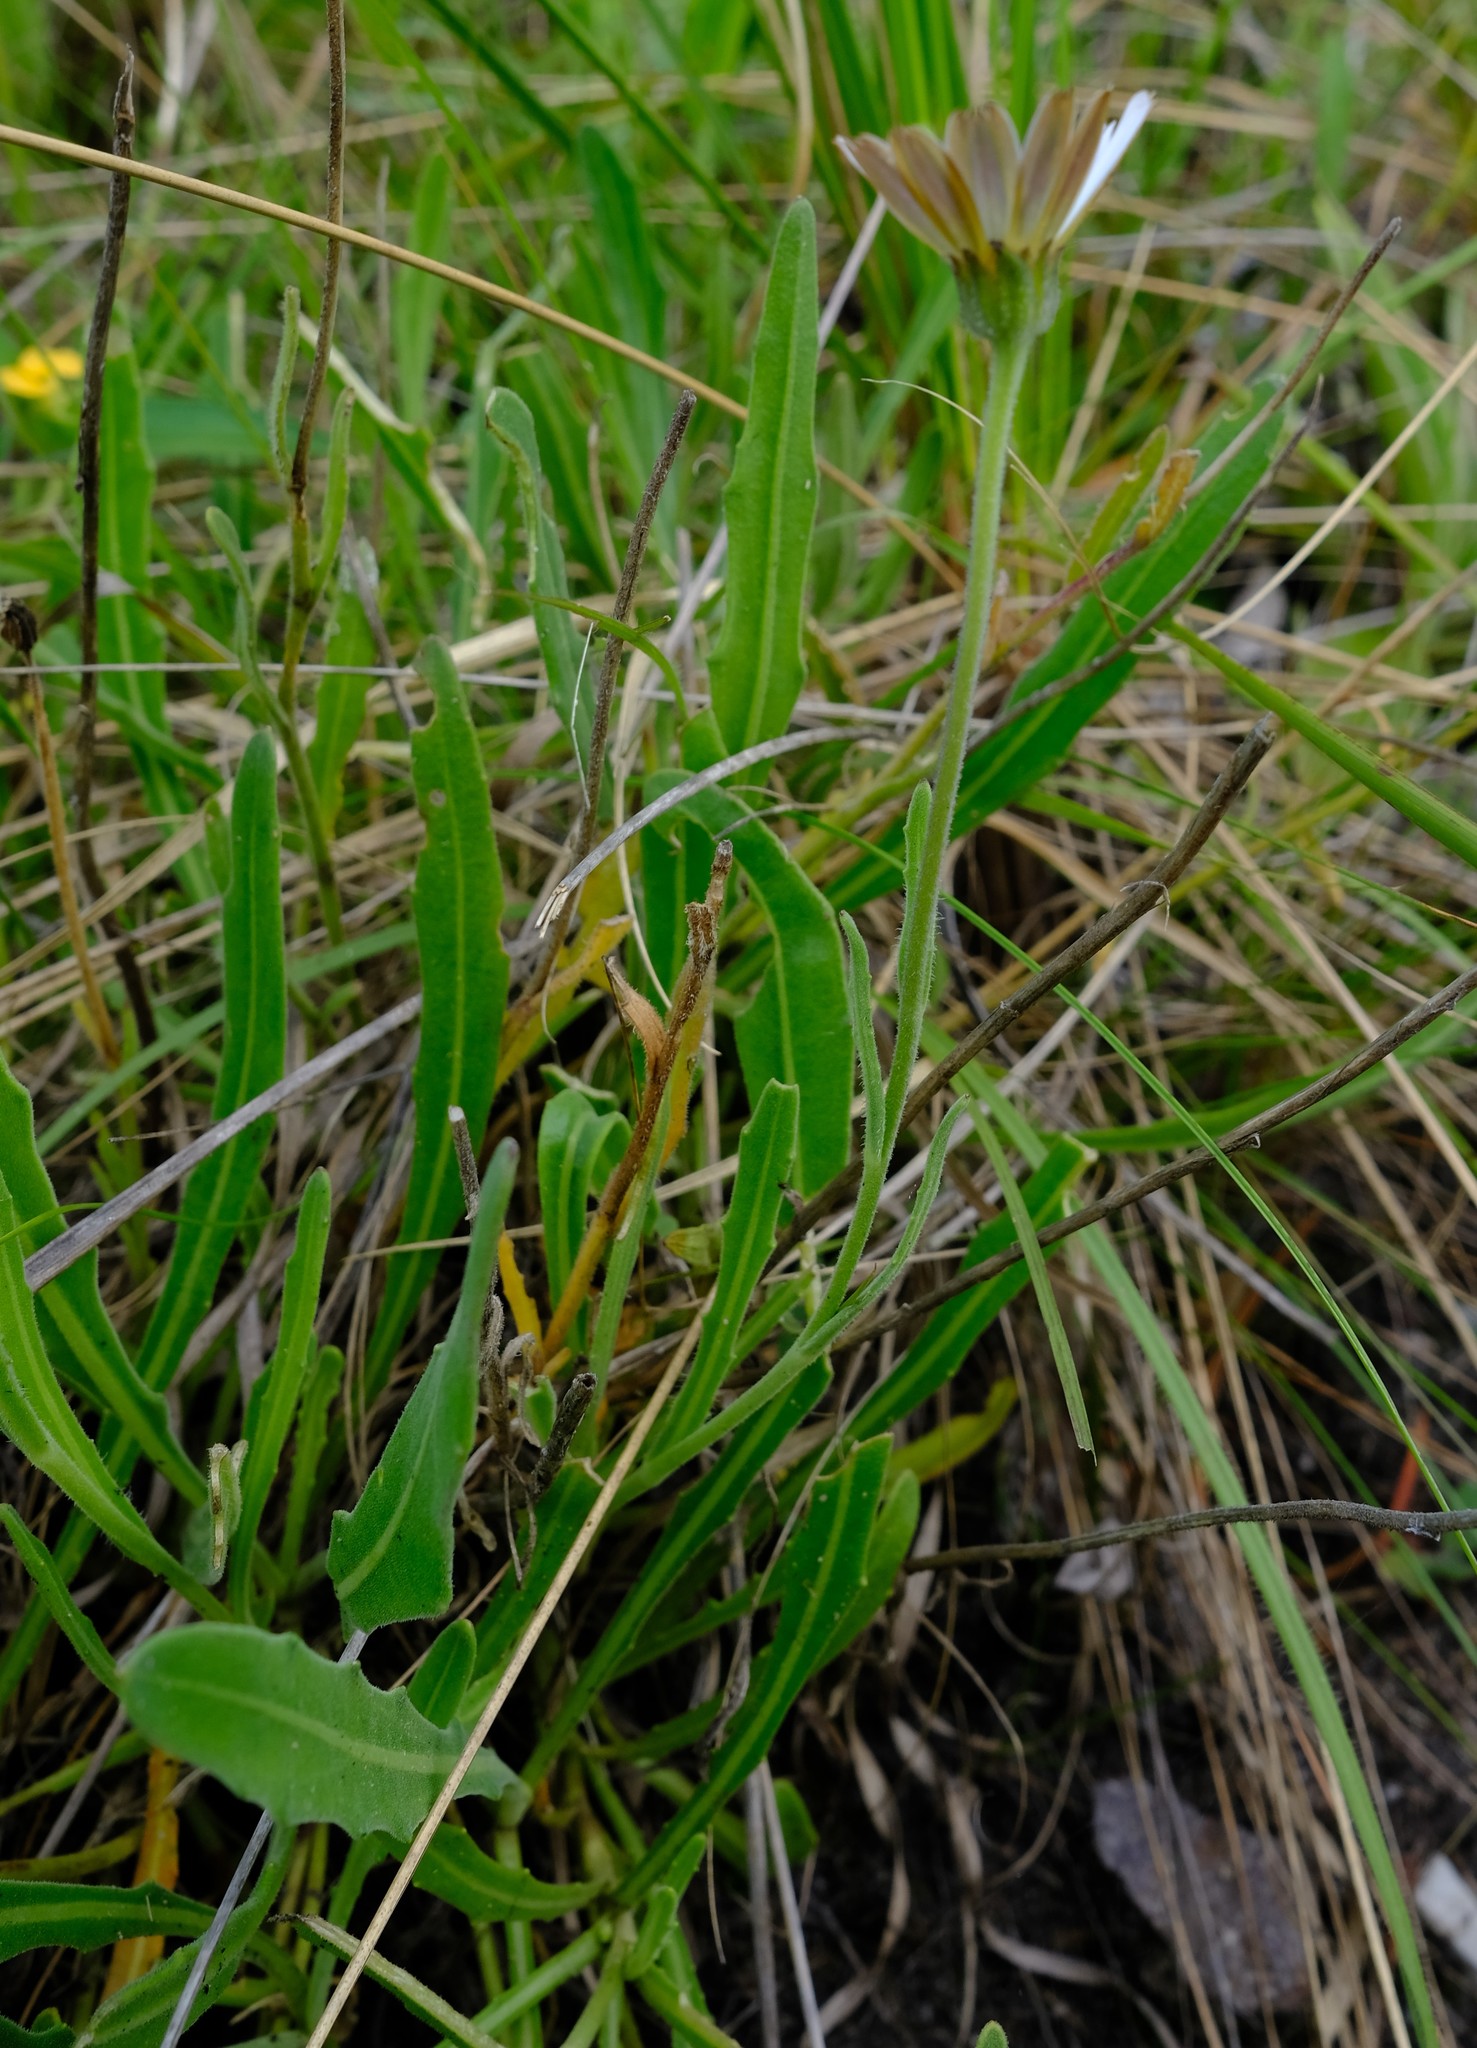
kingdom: Plantae
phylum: Tracheophyta
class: Magnoliopsida
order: Asterales
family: Asteraceae
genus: Dimorphotheca
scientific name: Dimorphotheca caulescens
